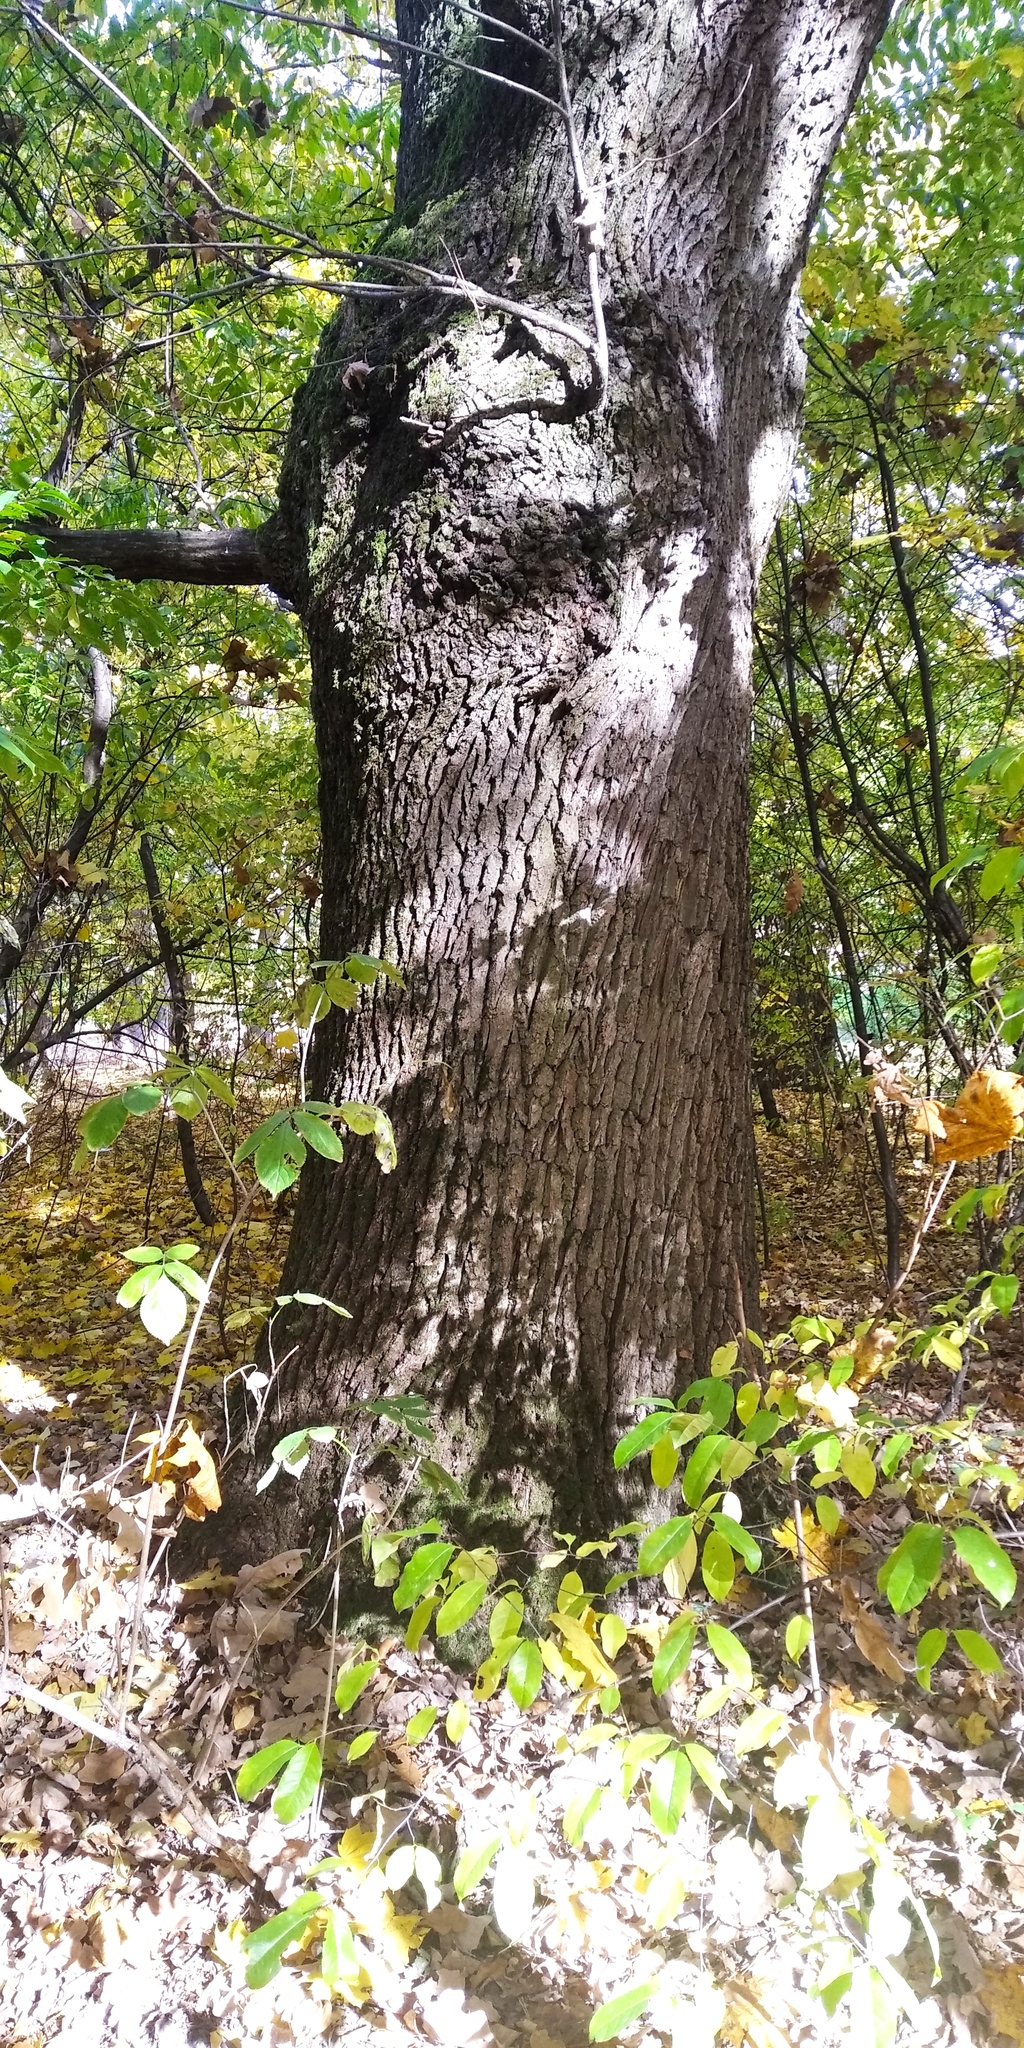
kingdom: Plantae
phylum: Tracheophyta
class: Magnoliopsida
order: Fagales
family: Fagaceae
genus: Quercus
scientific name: Quercus robur
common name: Pedunculate oak
